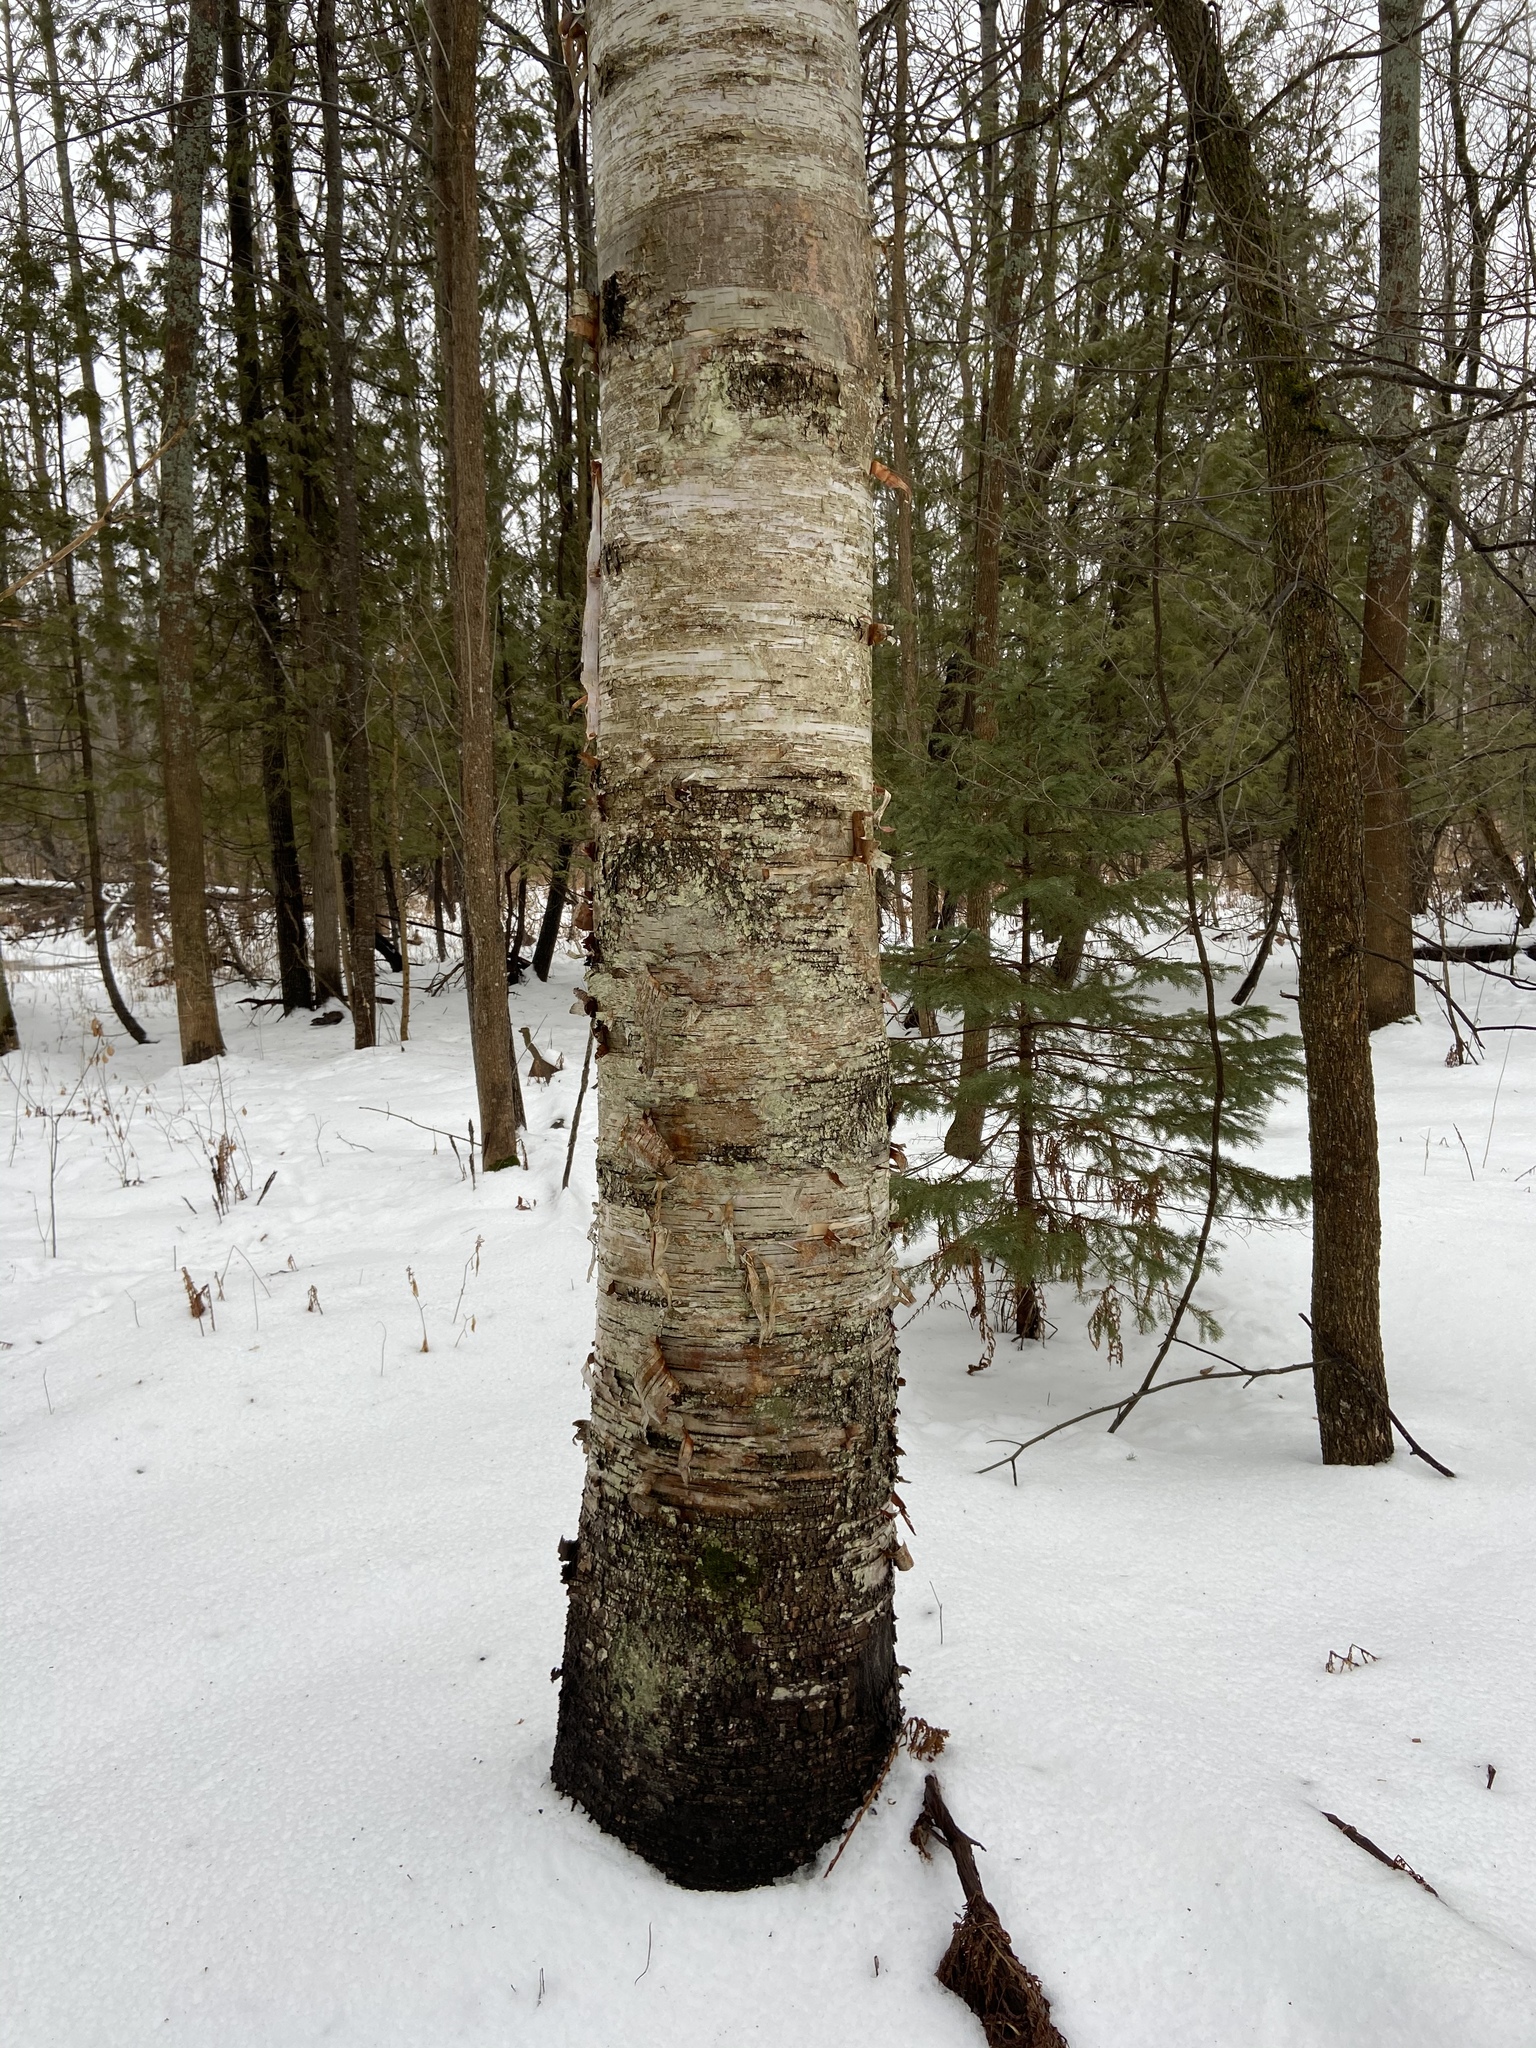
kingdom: Plantae
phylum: Tracheophyta
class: Magnoliopsida
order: Fagales
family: Betulaceae
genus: Betula
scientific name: Betula papyrifera
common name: Paper birch
